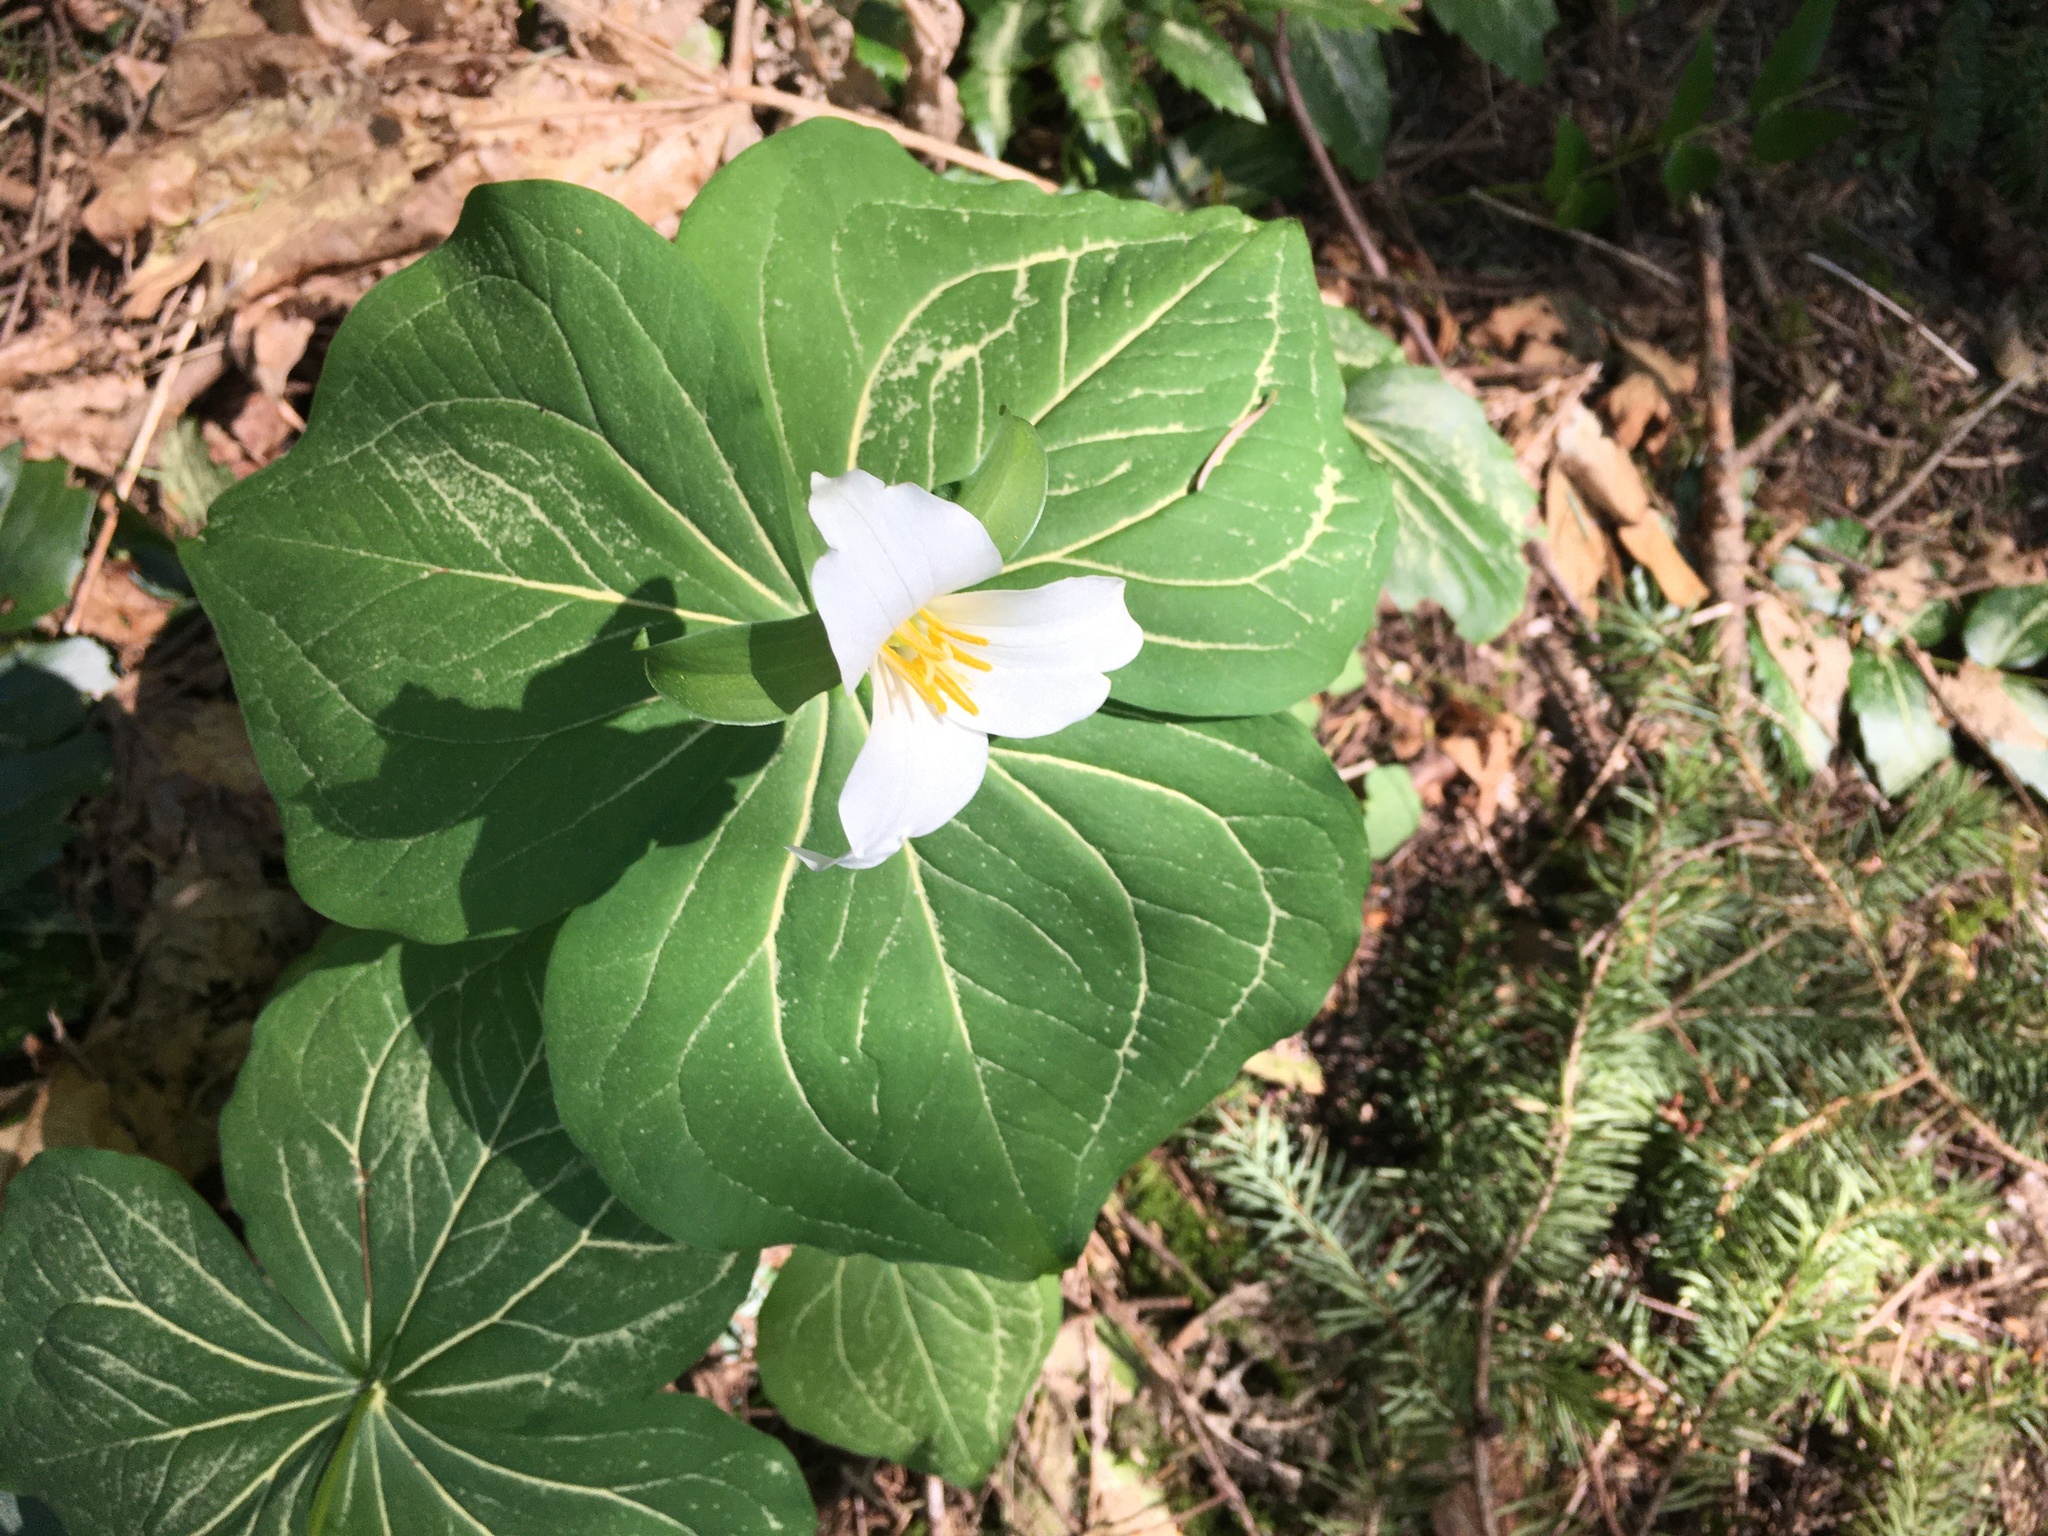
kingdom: Plantae
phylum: Tracheophyta
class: Liliopsida
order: Liliales
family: Melanthiaceae
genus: Trillium
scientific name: Trillium ovatum
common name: Pacific trillium
